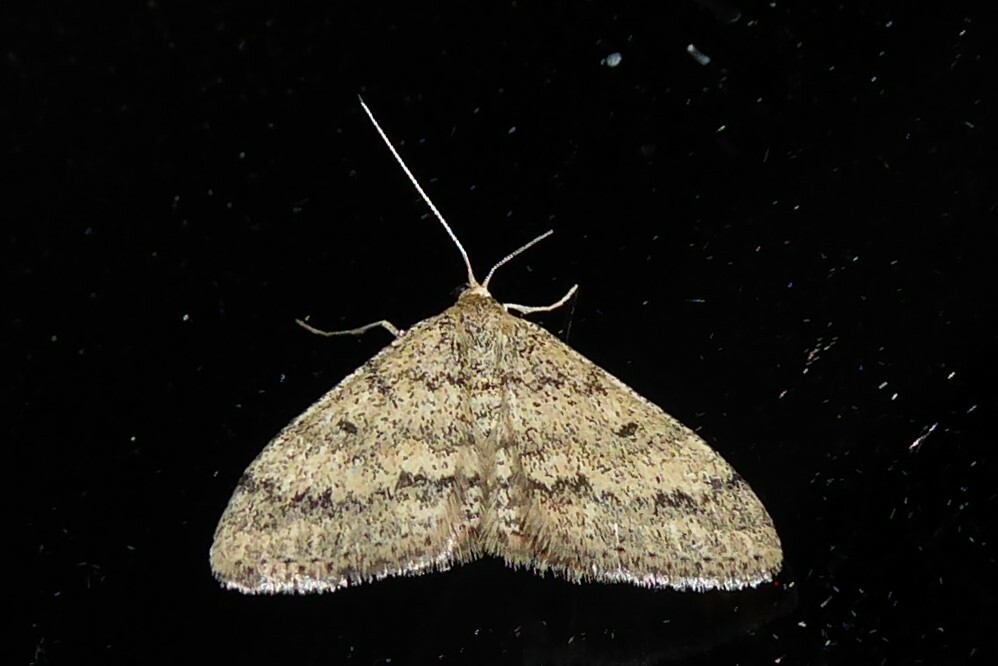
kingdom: Animalia
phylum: Arthropoda
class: Insecta
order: Lepidoptera
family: Geometridae
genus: Scopula
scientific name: Scopula rubraria
